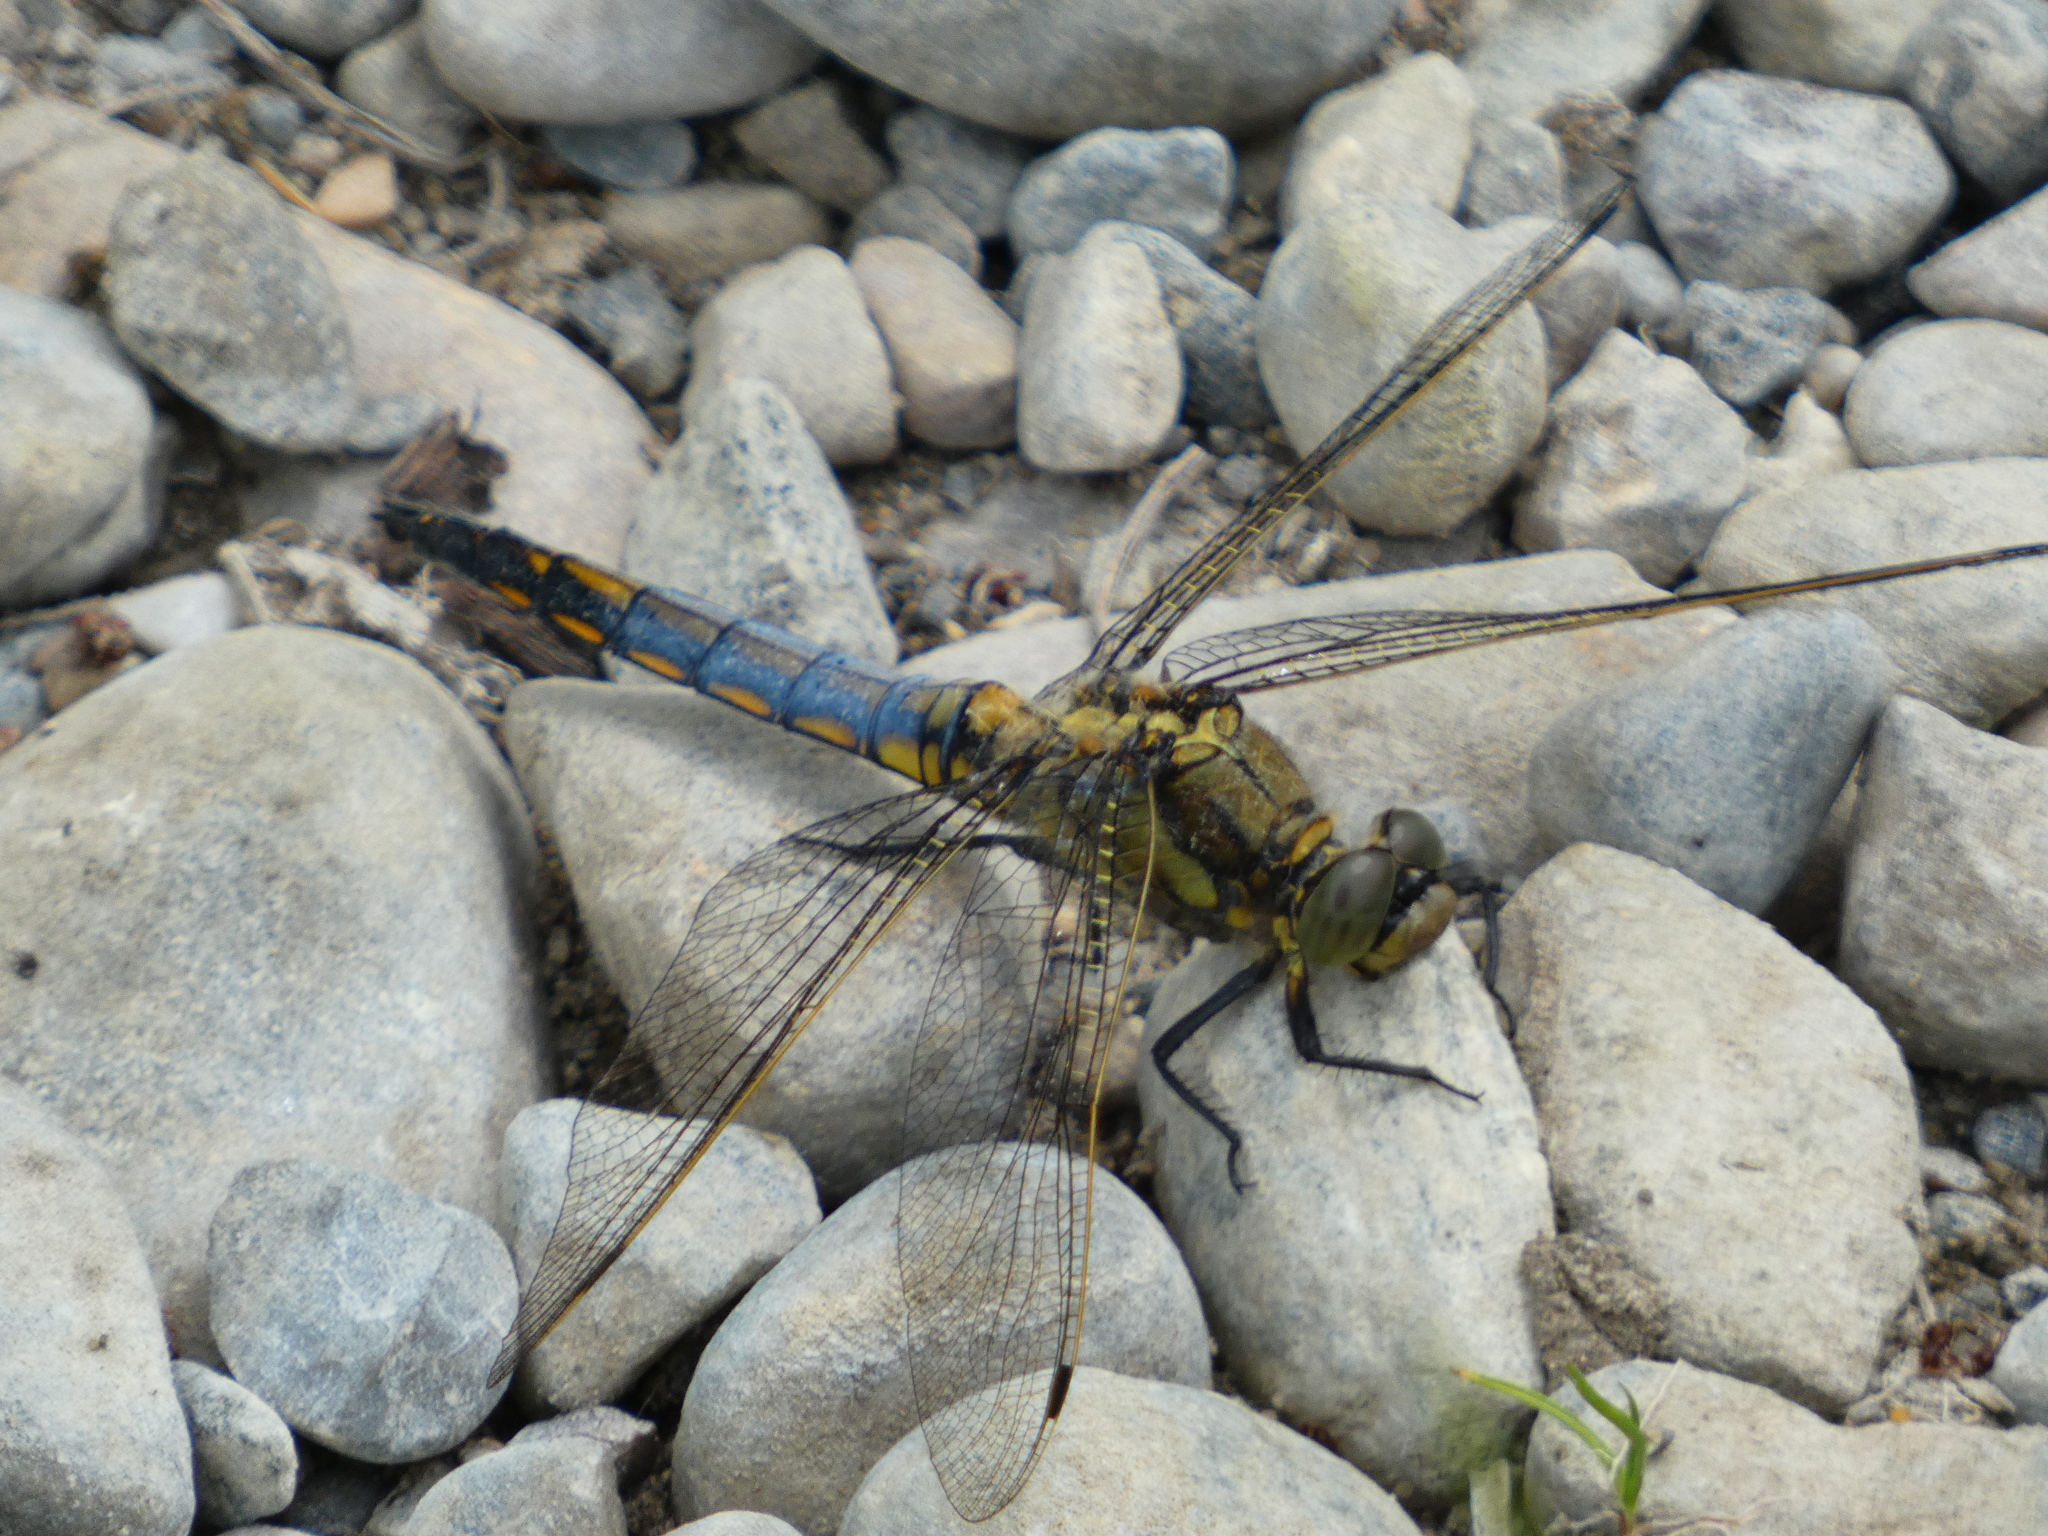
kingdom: Animalia
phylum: Arthropoda
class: Insecta
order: Odonata
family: Libellulidae
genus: Orthetrum
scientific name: Orthetrum cancellatum
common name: Black-tailed skimmer
